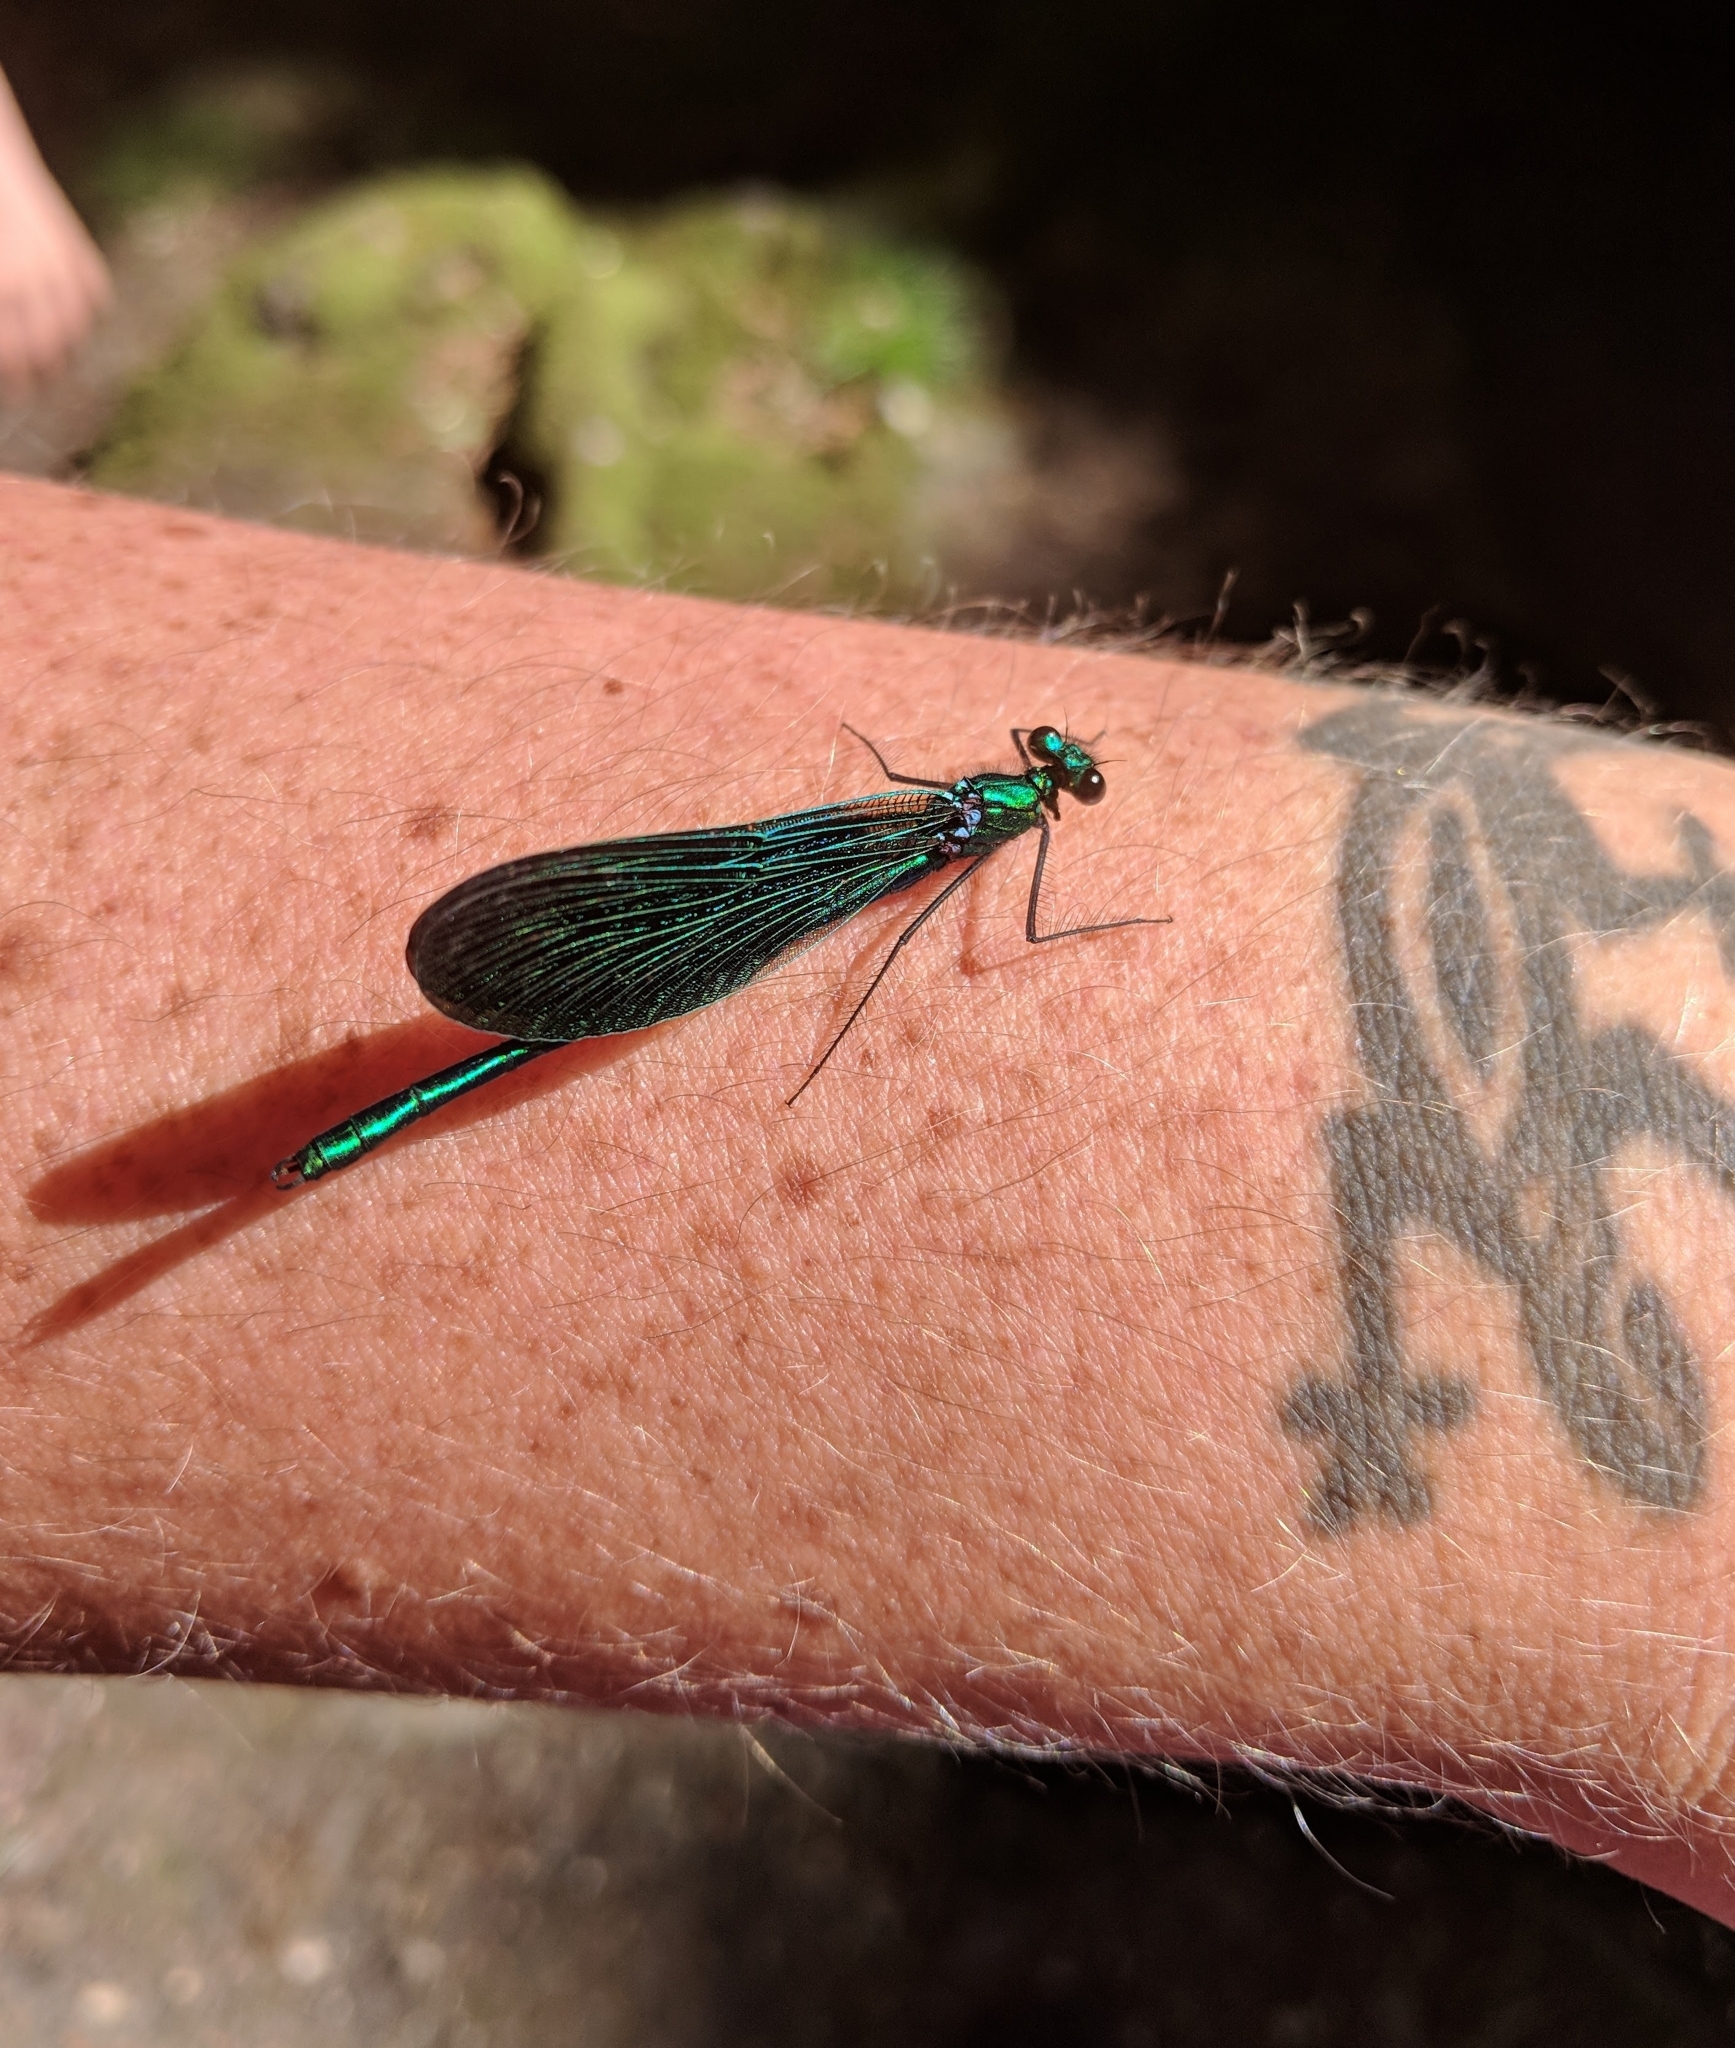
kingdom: Animalia
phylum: Arthropoda
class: Insecta
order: Odonata
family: Calopterygidae
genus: Calopteryx
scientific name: Calopteryx virgo
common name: Beautiful demoiselle
